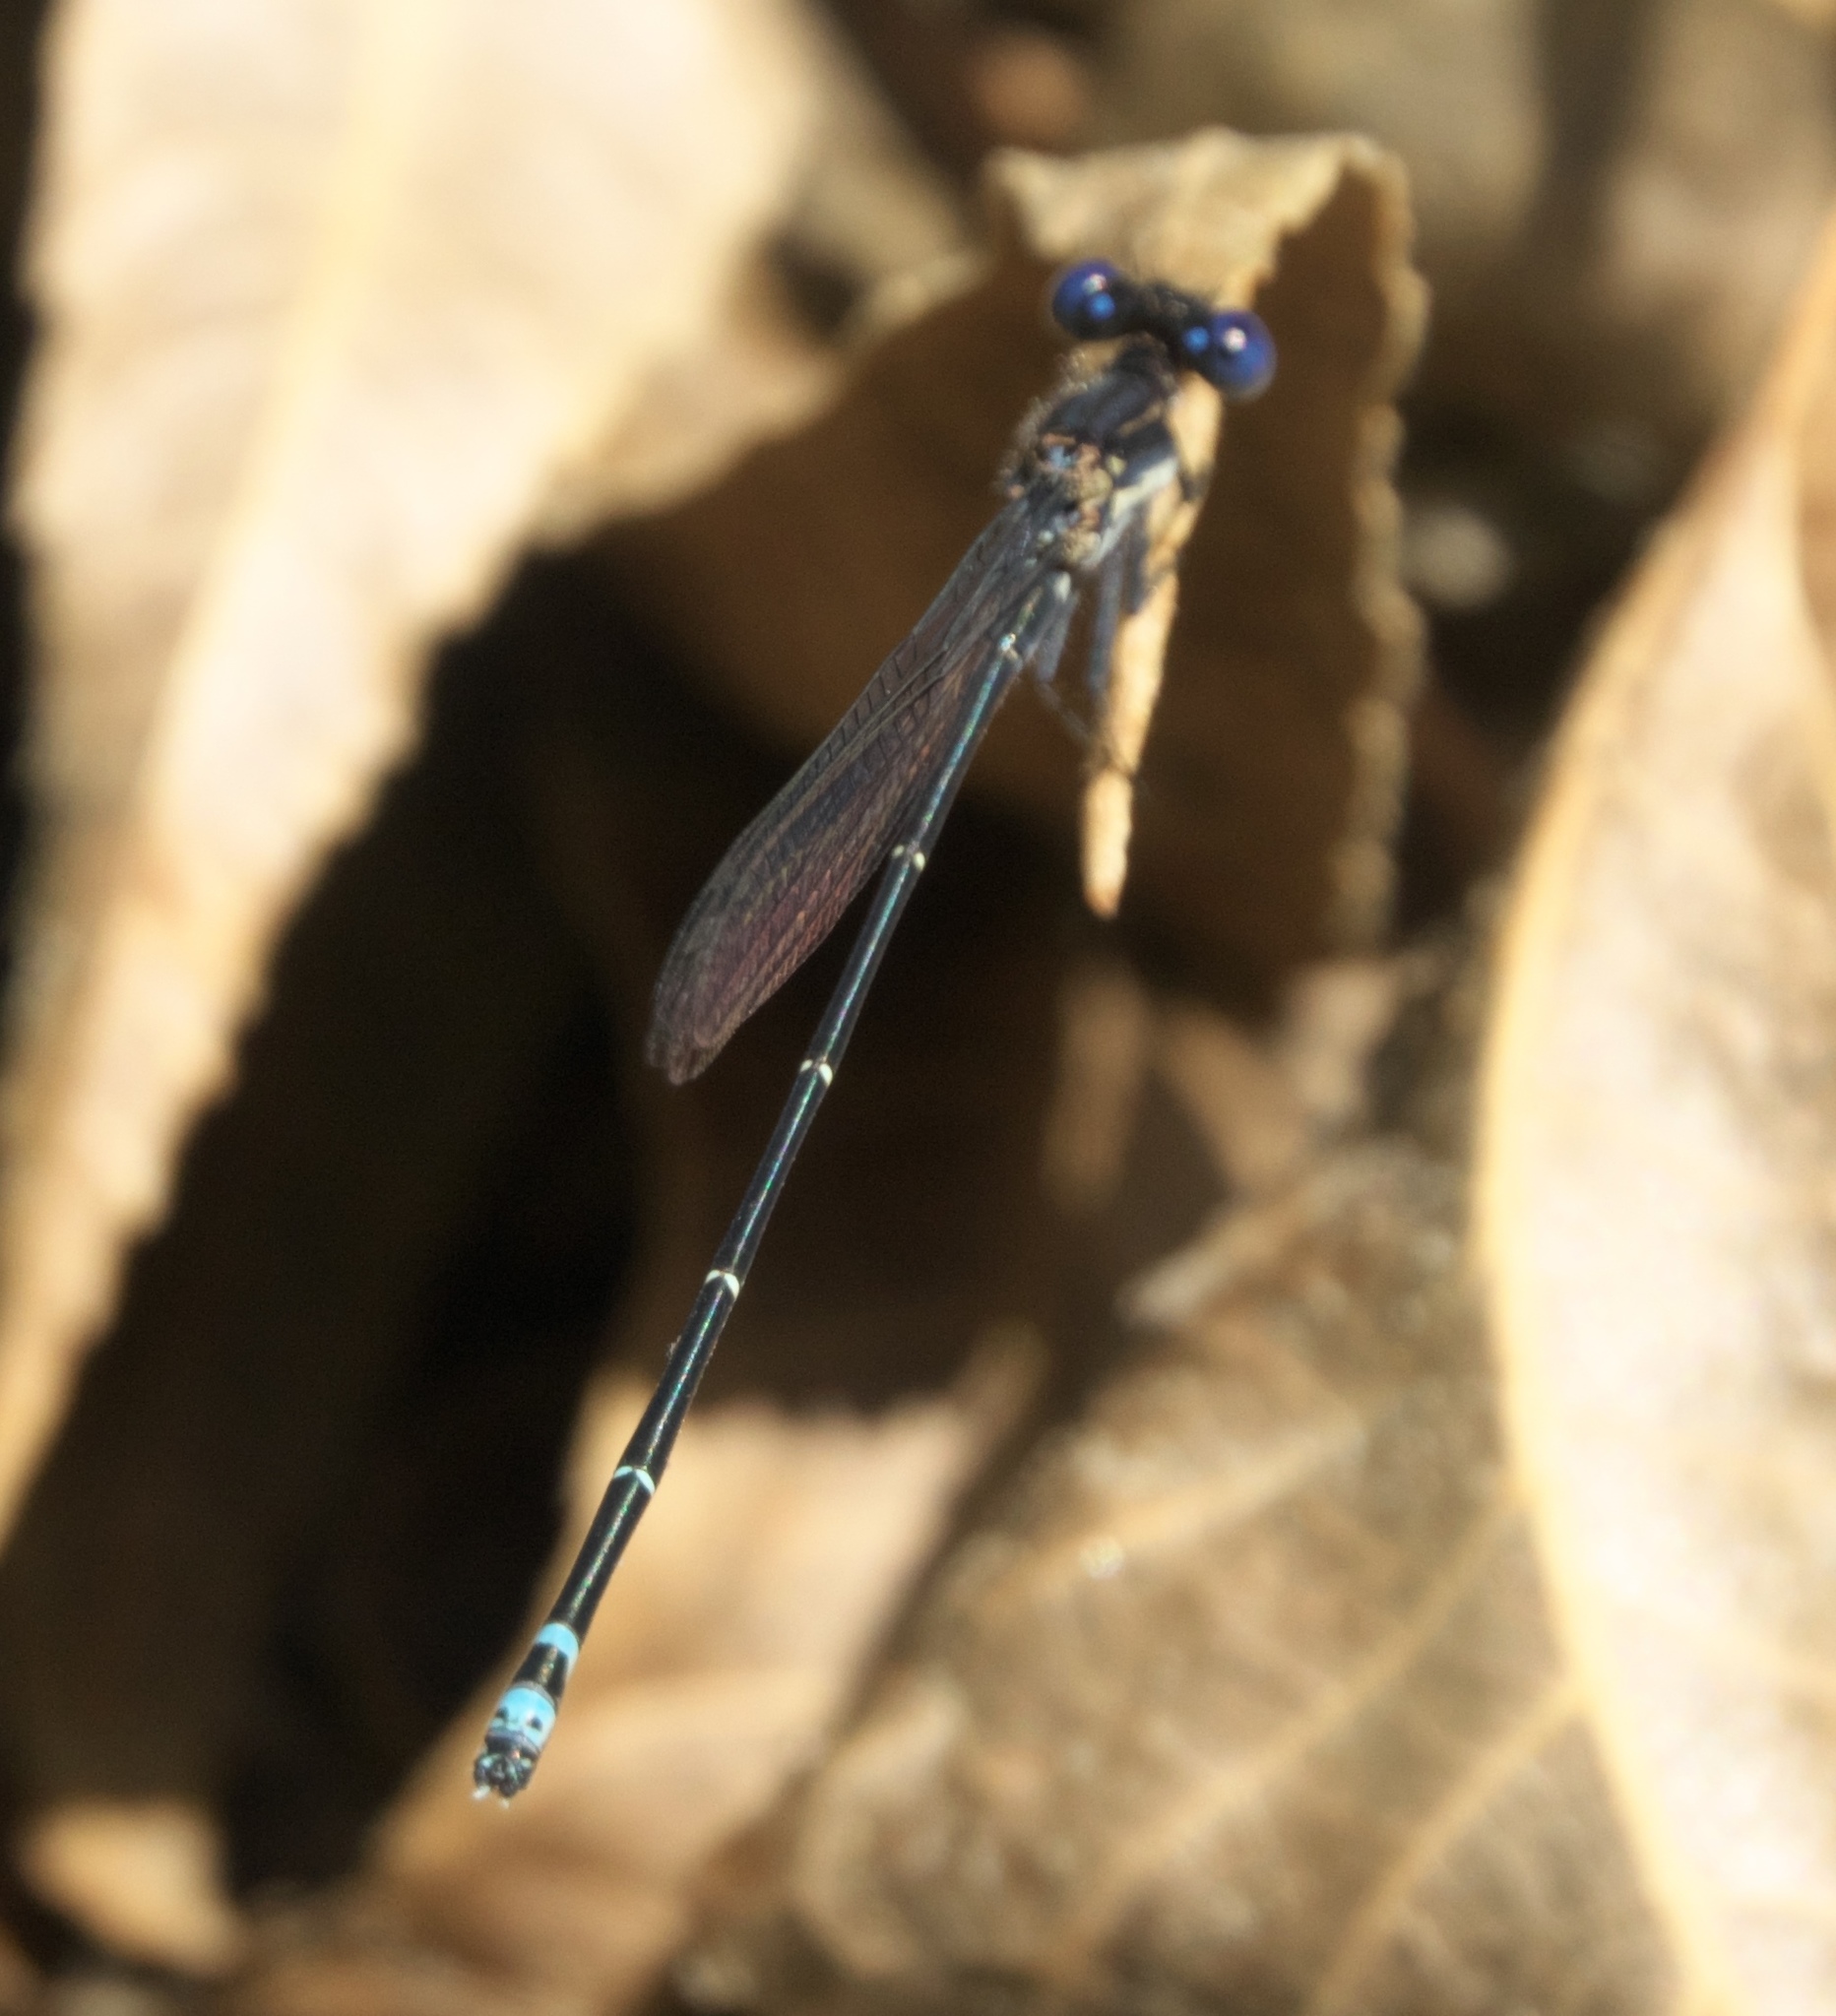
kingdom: Animalia
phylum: Arthropoda
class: Insecta
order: Odonata
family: Coenagrionidae
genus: Argia
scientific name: Argia translata
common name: Dusky dancer
